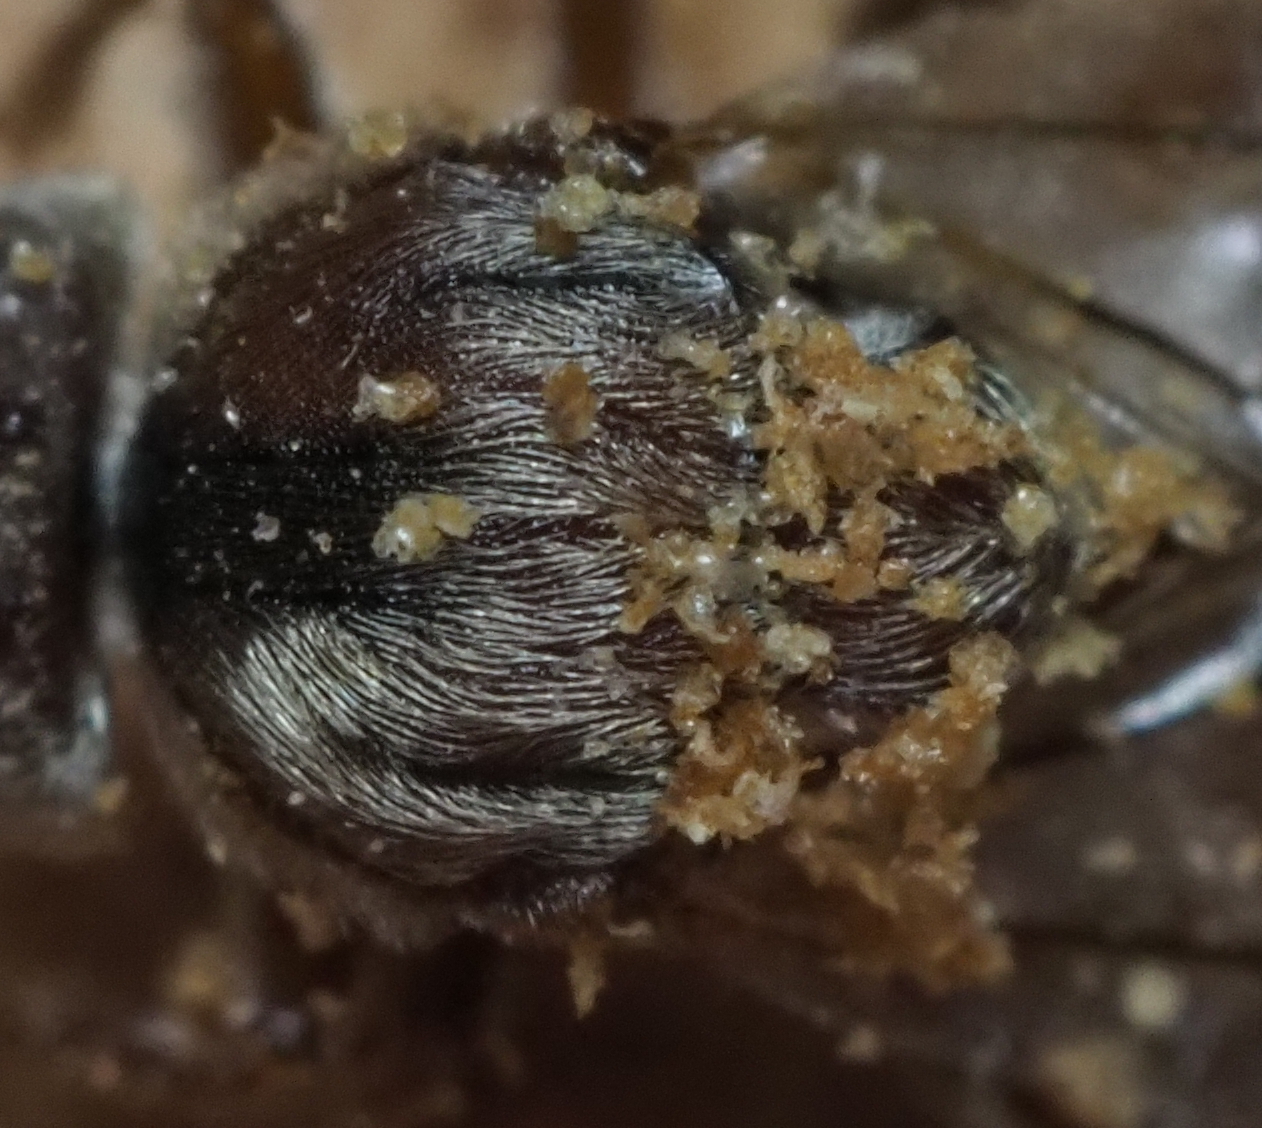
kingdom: Animalia
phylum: Arthropoda
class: Insecta
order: Hymenoptera
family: Cynipidae
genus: Disholcaspis
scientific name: Disholcaspis
